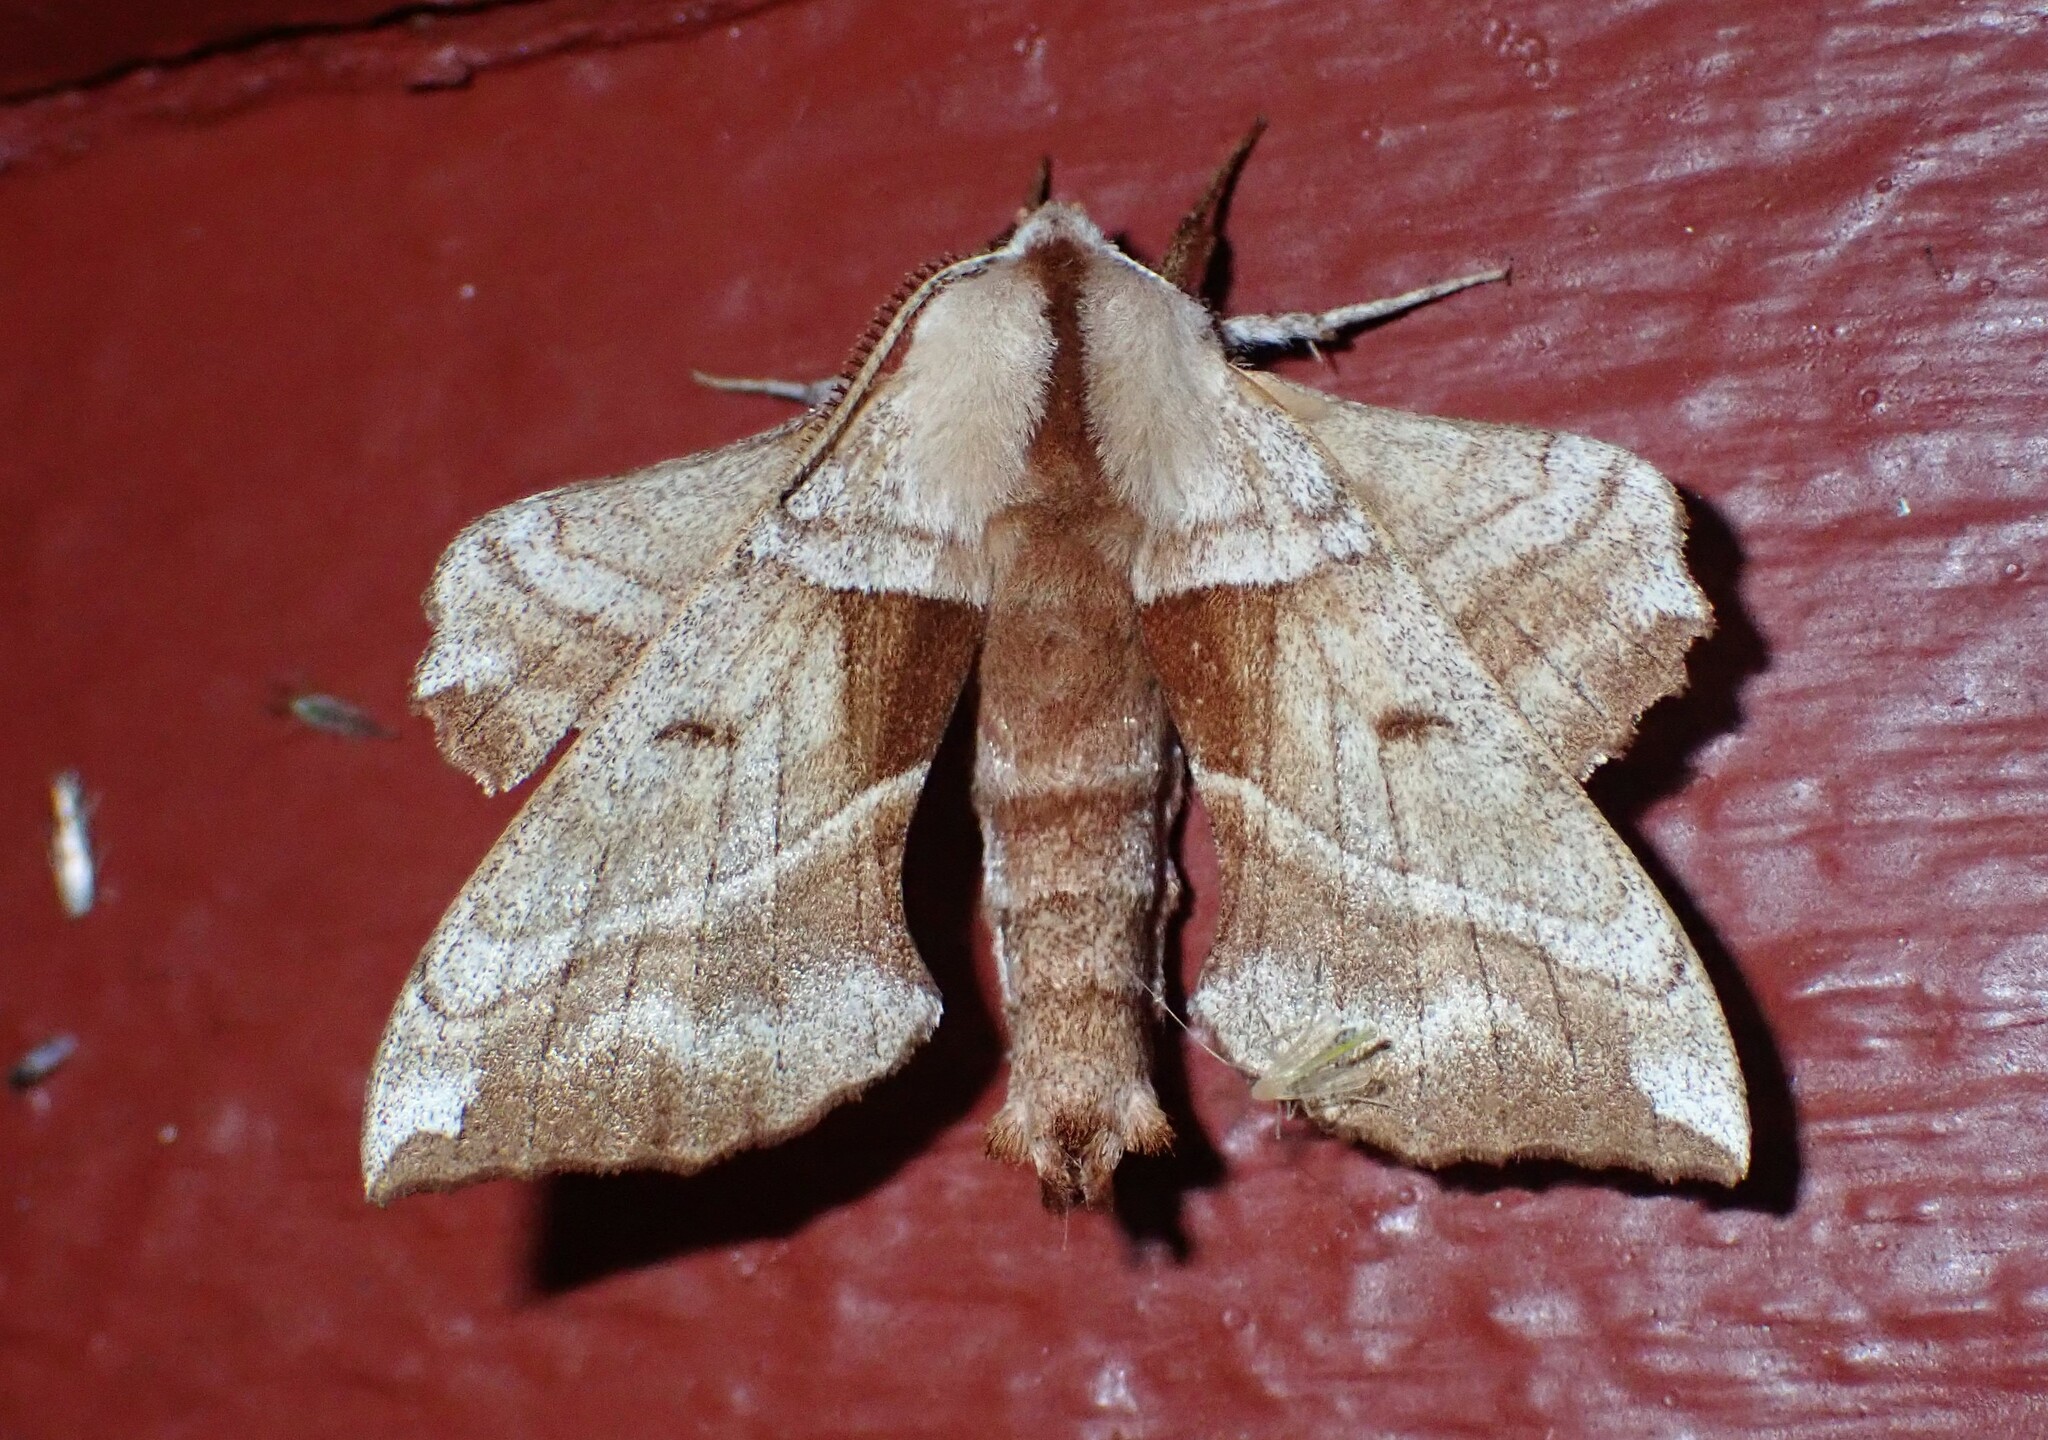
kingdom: Animalia
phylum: Arthropoda
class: Insecta
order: Lepidoptera
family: Sphingidae
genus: Amorpha
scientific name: Amorpha juglandis
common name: Walnut sphinx
